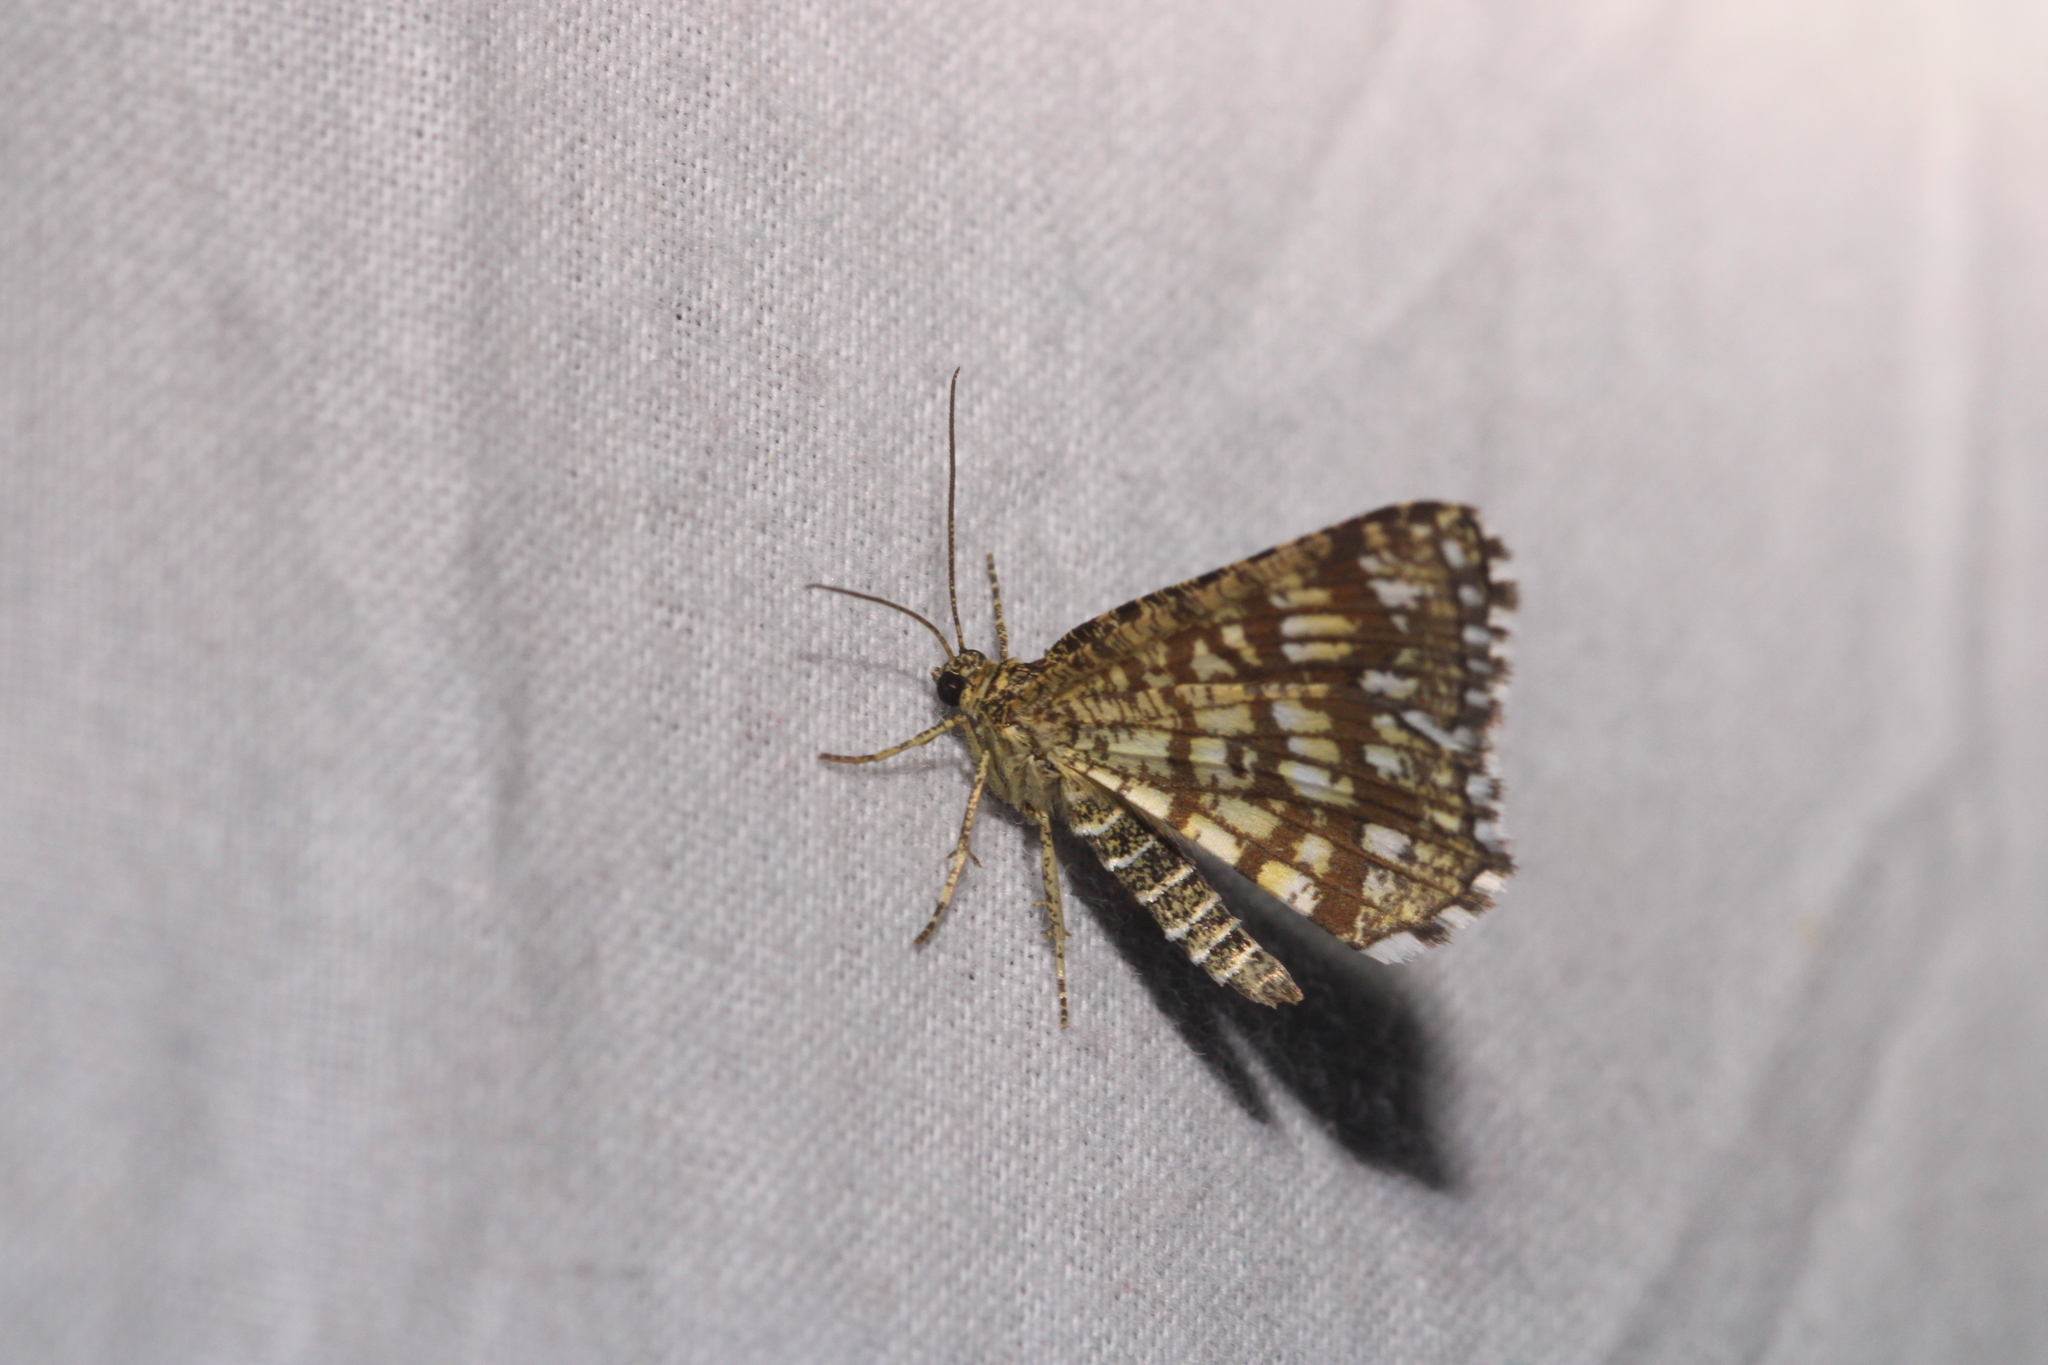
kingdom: Animalia
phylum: Arthropoda
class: Insecta
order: Lepidoptera
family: Geometridae
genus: Chiasmia
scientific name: Chiasmia clathrata
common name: Latticed heath
